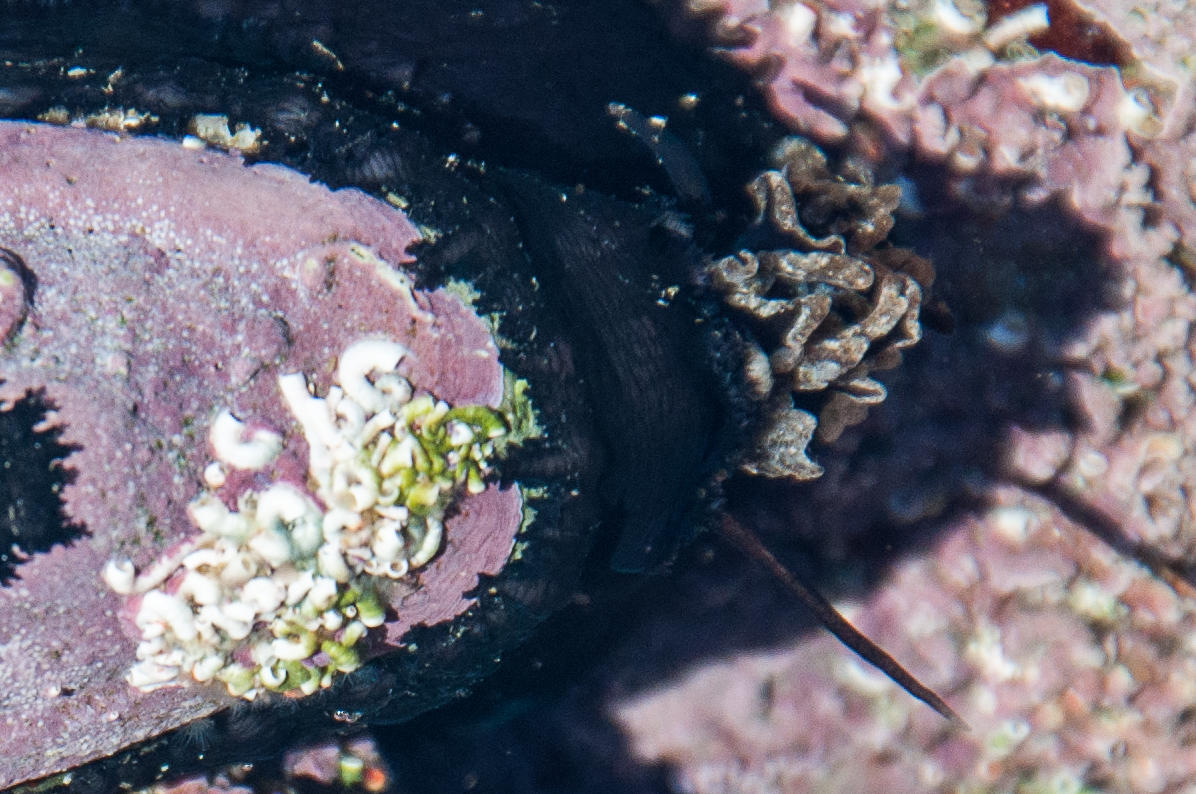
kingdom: Animalia
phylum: Mollusca
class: Gastropoda
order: Lepetellida
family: Fissurellidae
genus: Dendrofissurella
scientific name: Dendrofissurella scutellum
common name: Saddle-shaped keyhole limpet
